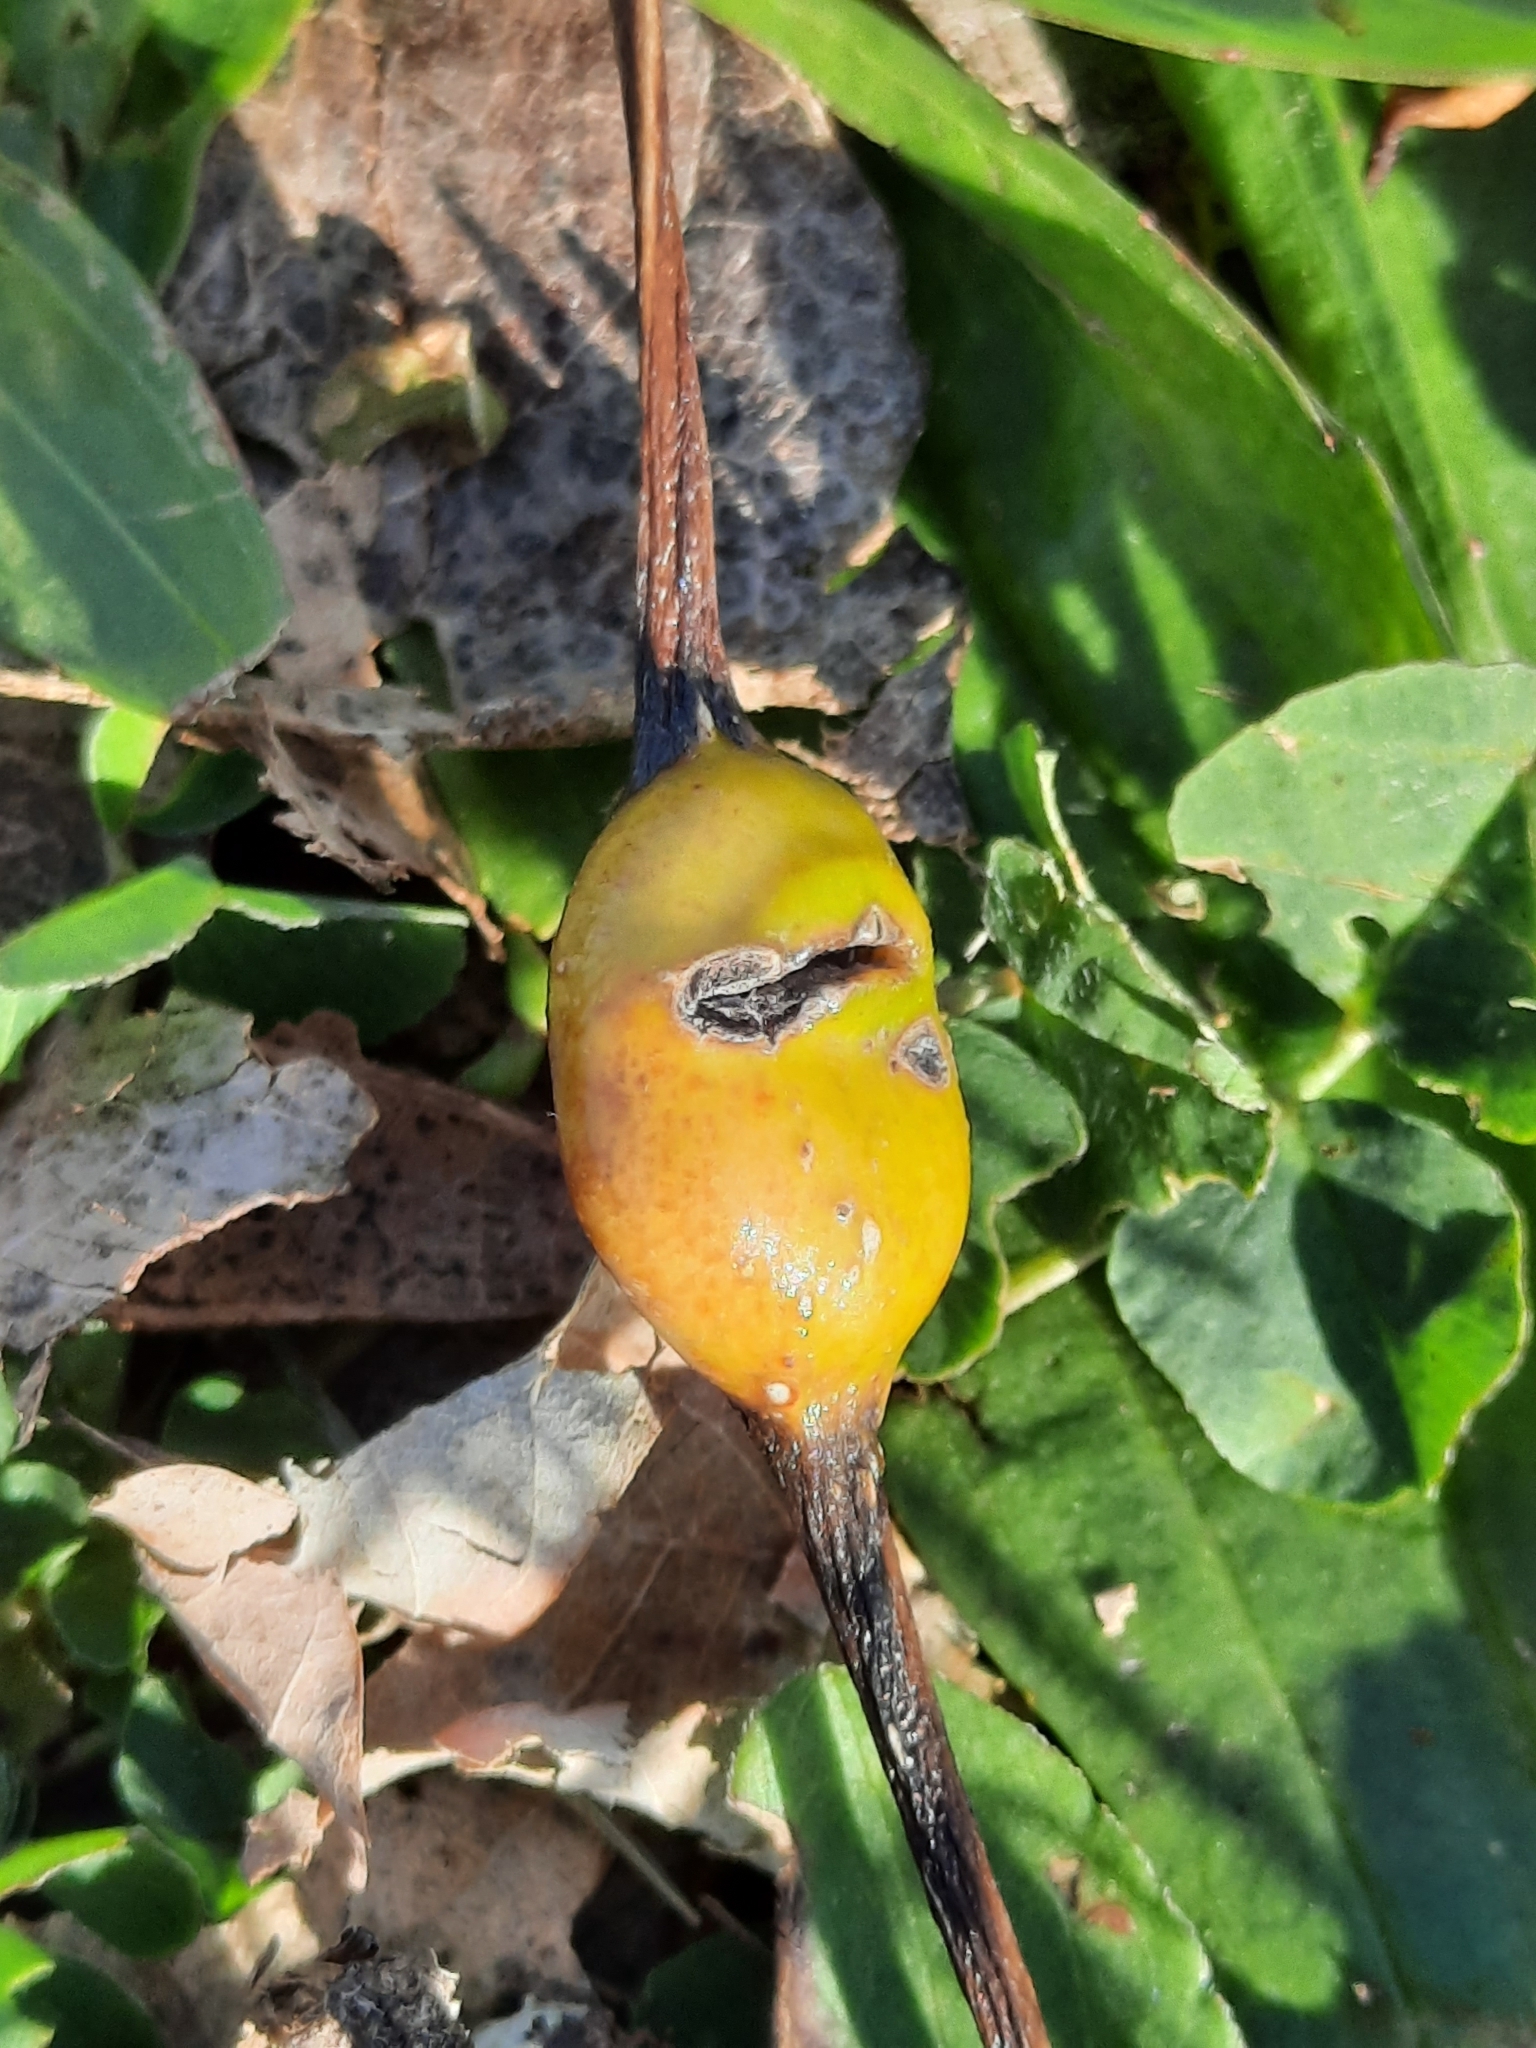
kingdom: Animalia
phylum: Arthropoda
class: Insecta
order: Hemiptera
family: Aphididae
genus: Pemphigus
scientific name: Pemphigus populitransversus
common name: Poplar petiolegall aphid
